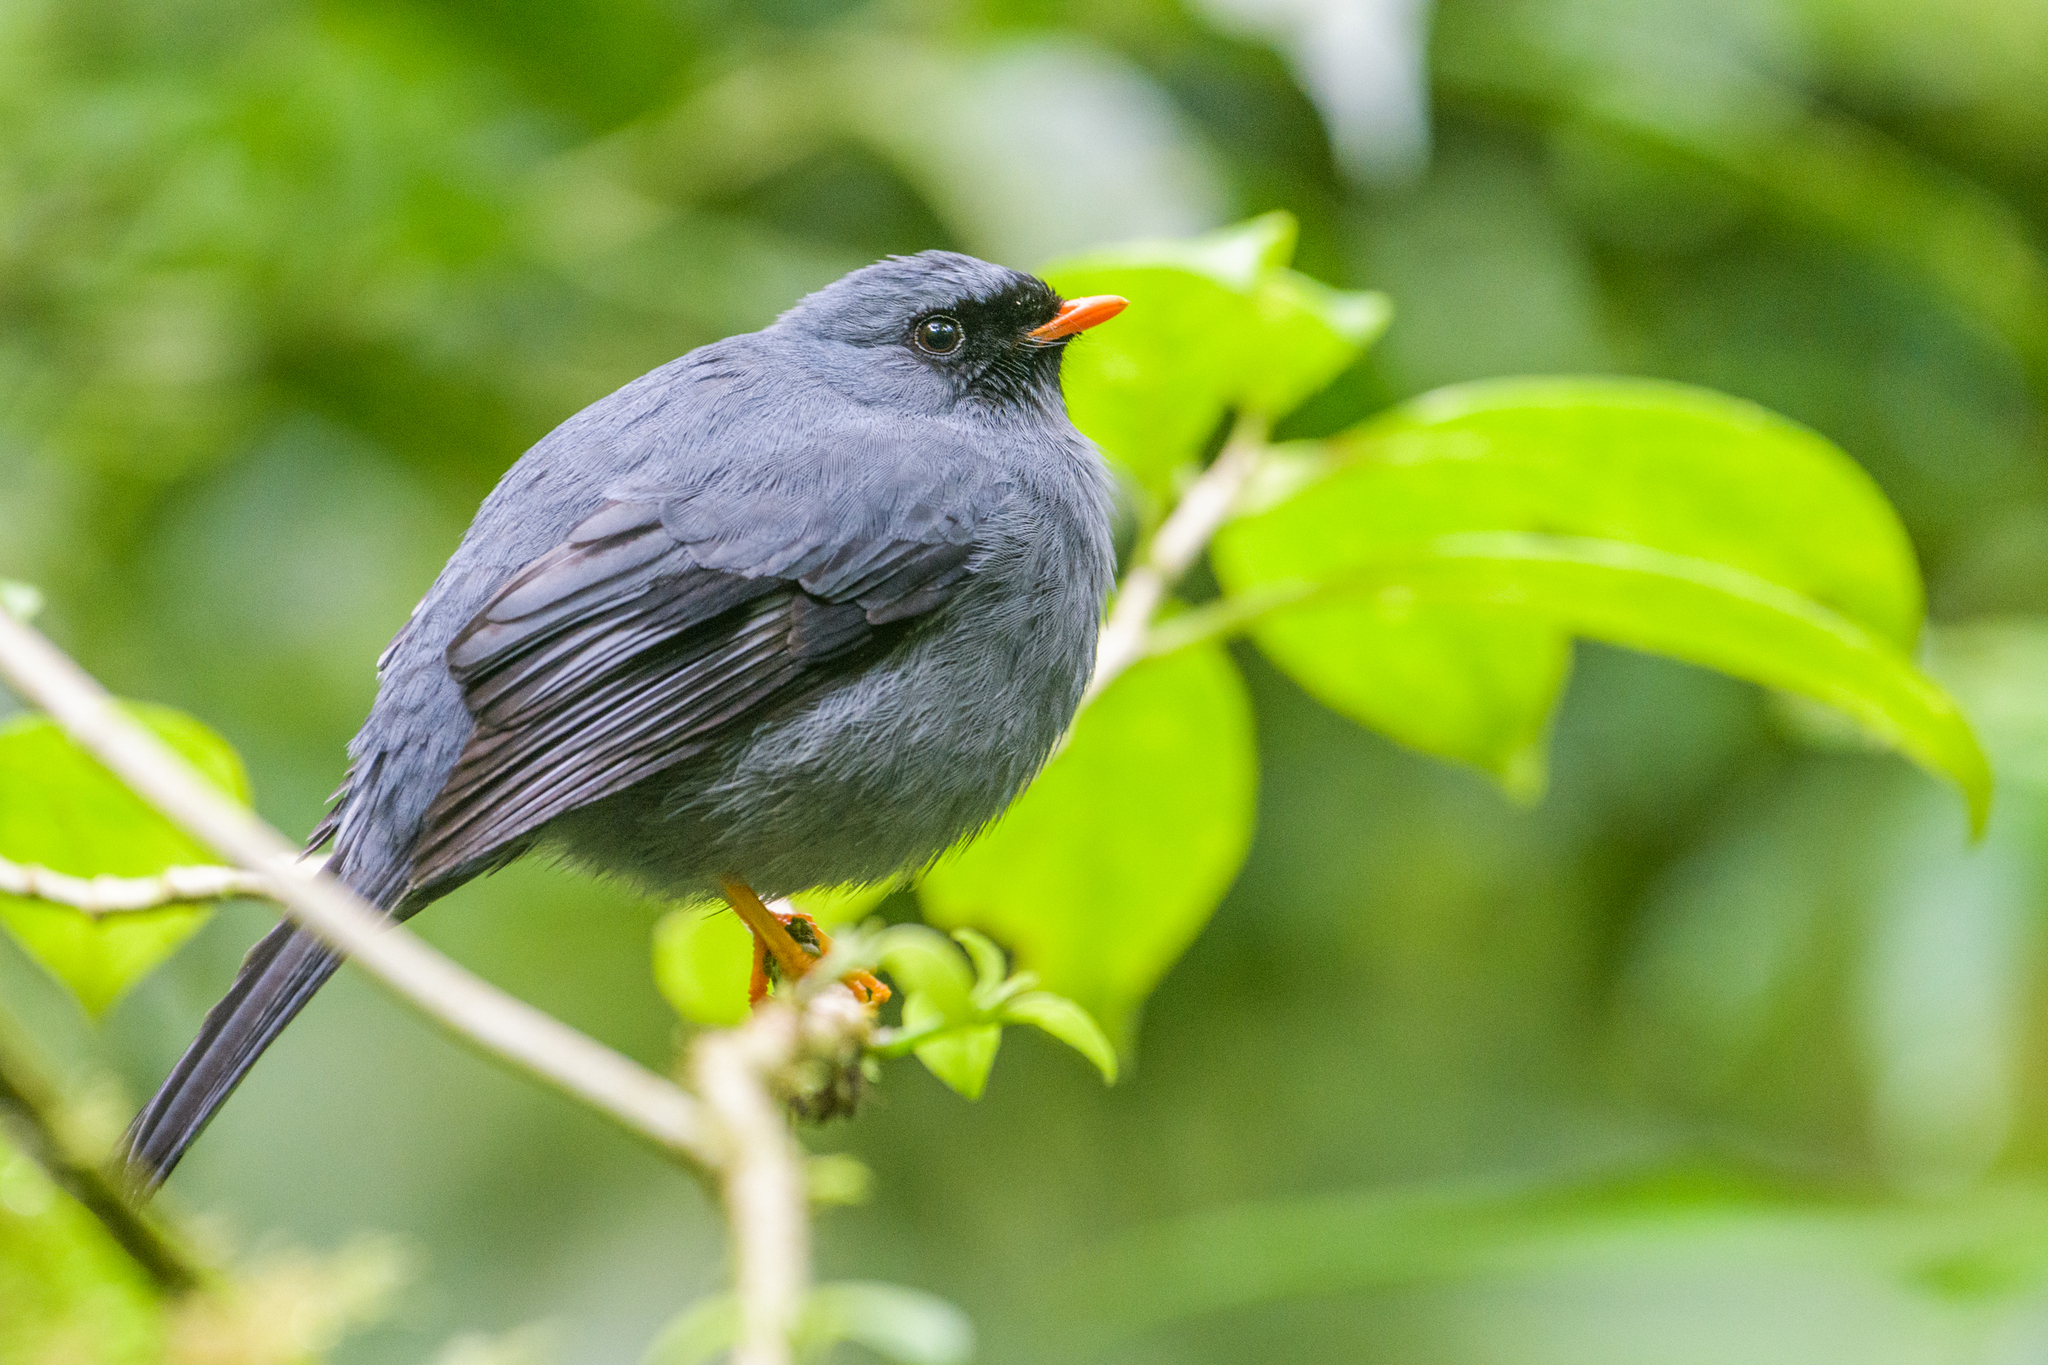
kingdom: Animalia
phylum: Chordata
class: Aves
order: Passeriformes
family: Turdidae
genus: Myadestes
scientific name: Myadestes melanops
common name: Black-faced solitaire
